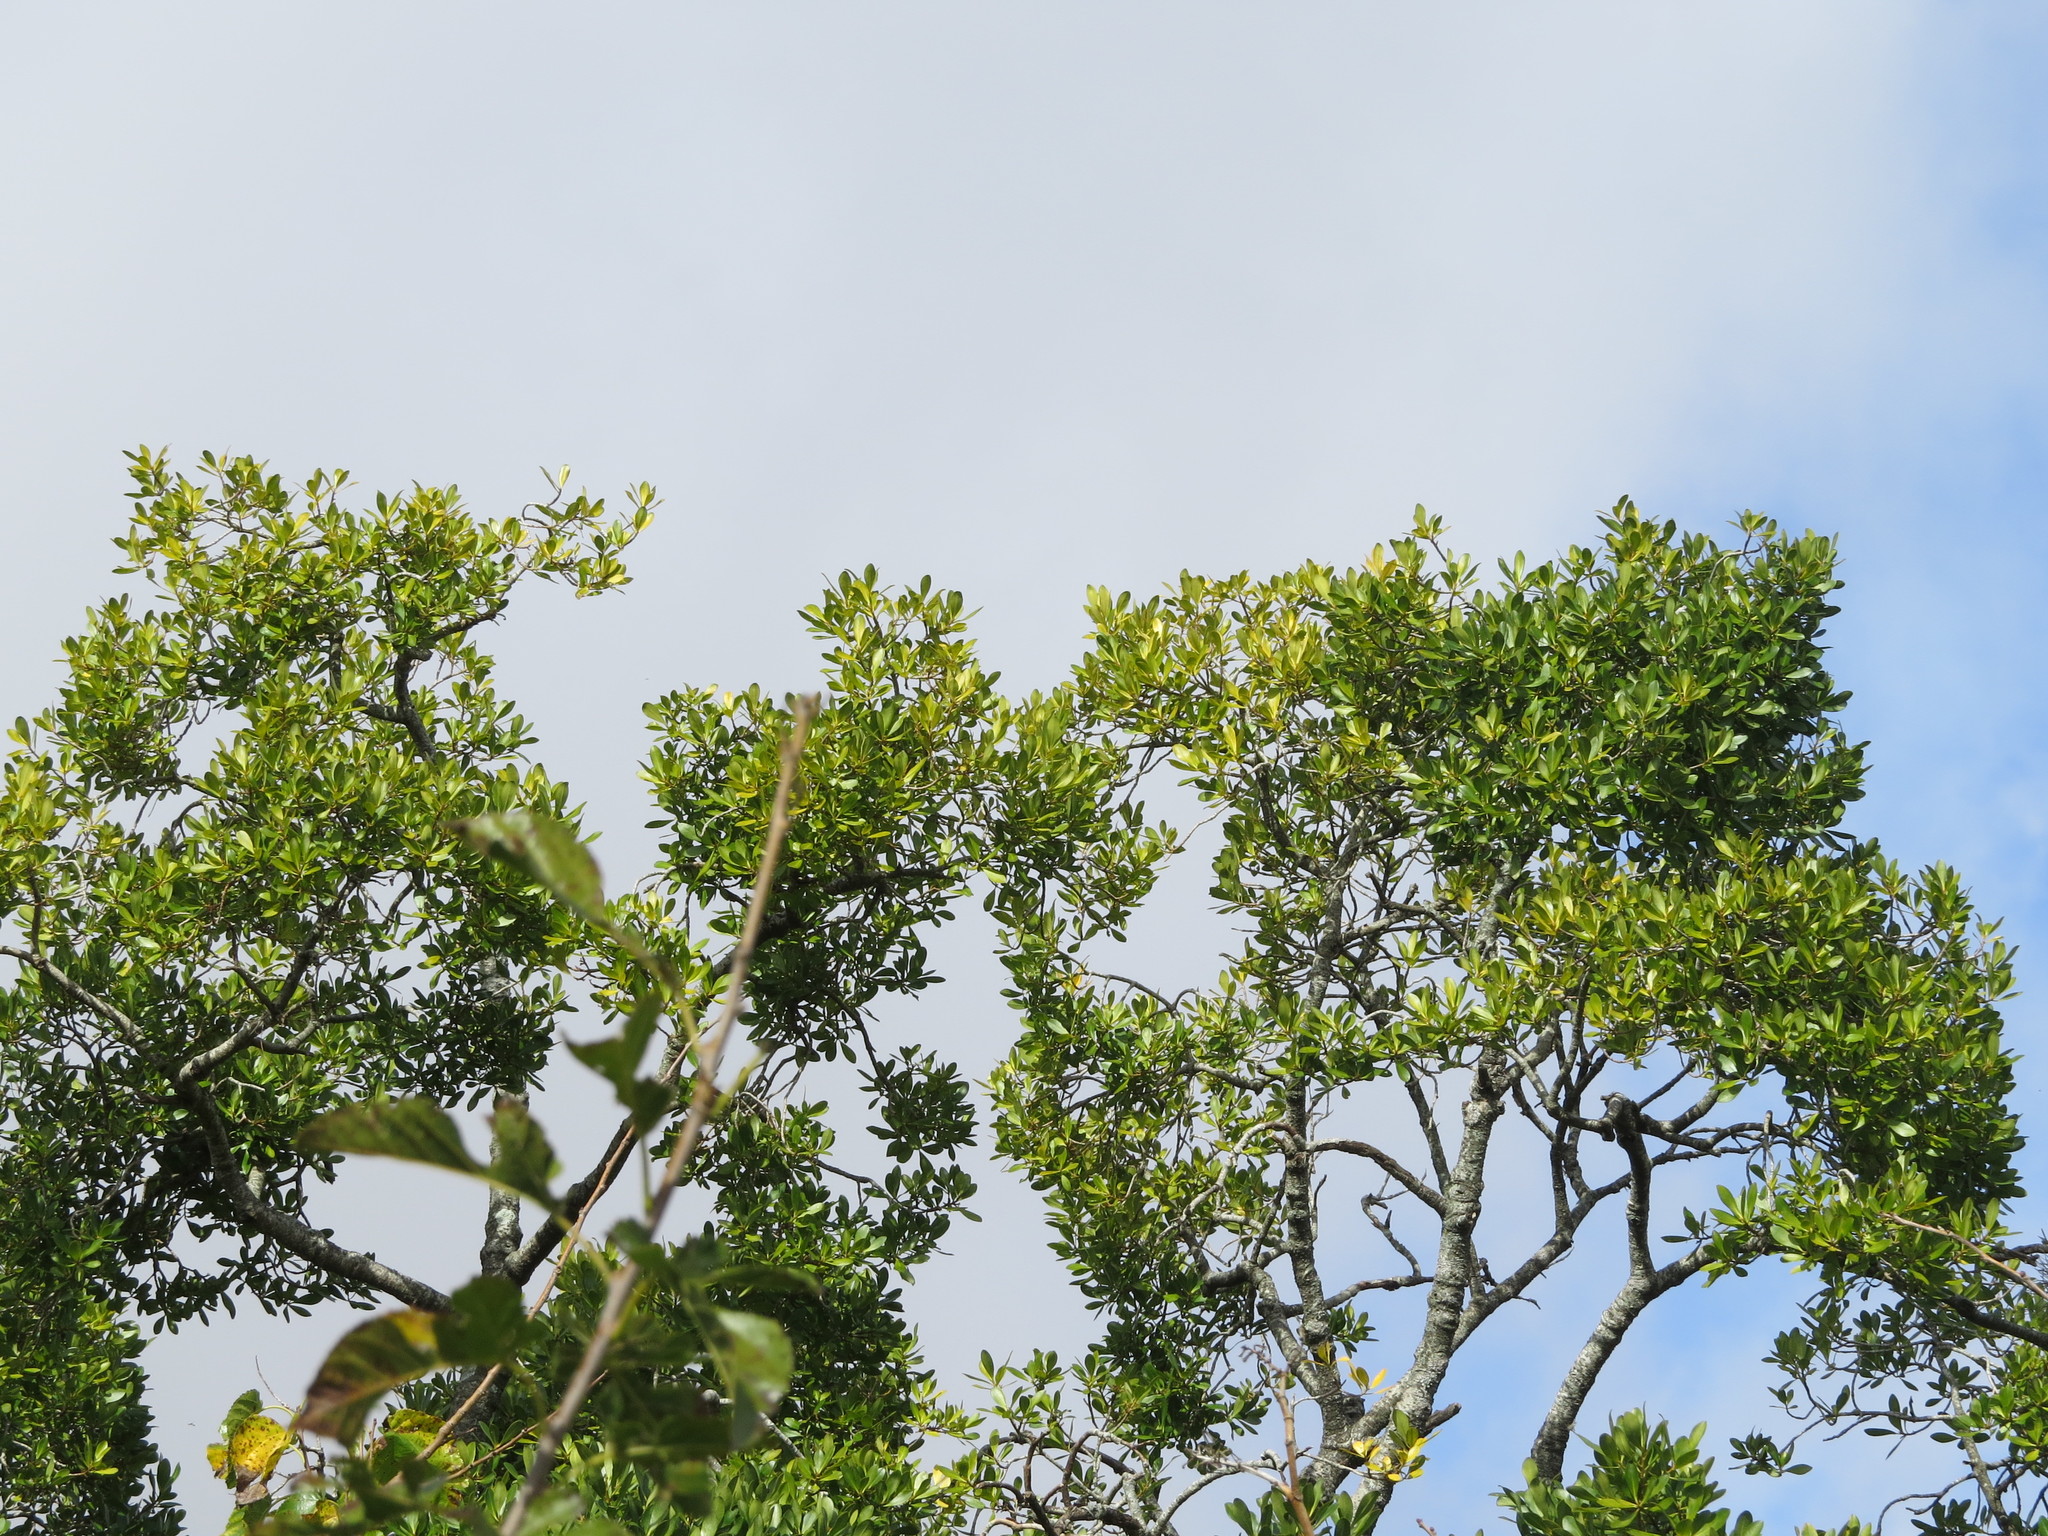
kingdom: Plantae
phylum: Tracheophyta
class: Magnoliopsida
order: Ericales
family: Primulaceae
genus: Myrsine
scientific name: Myrsine laetevirens
